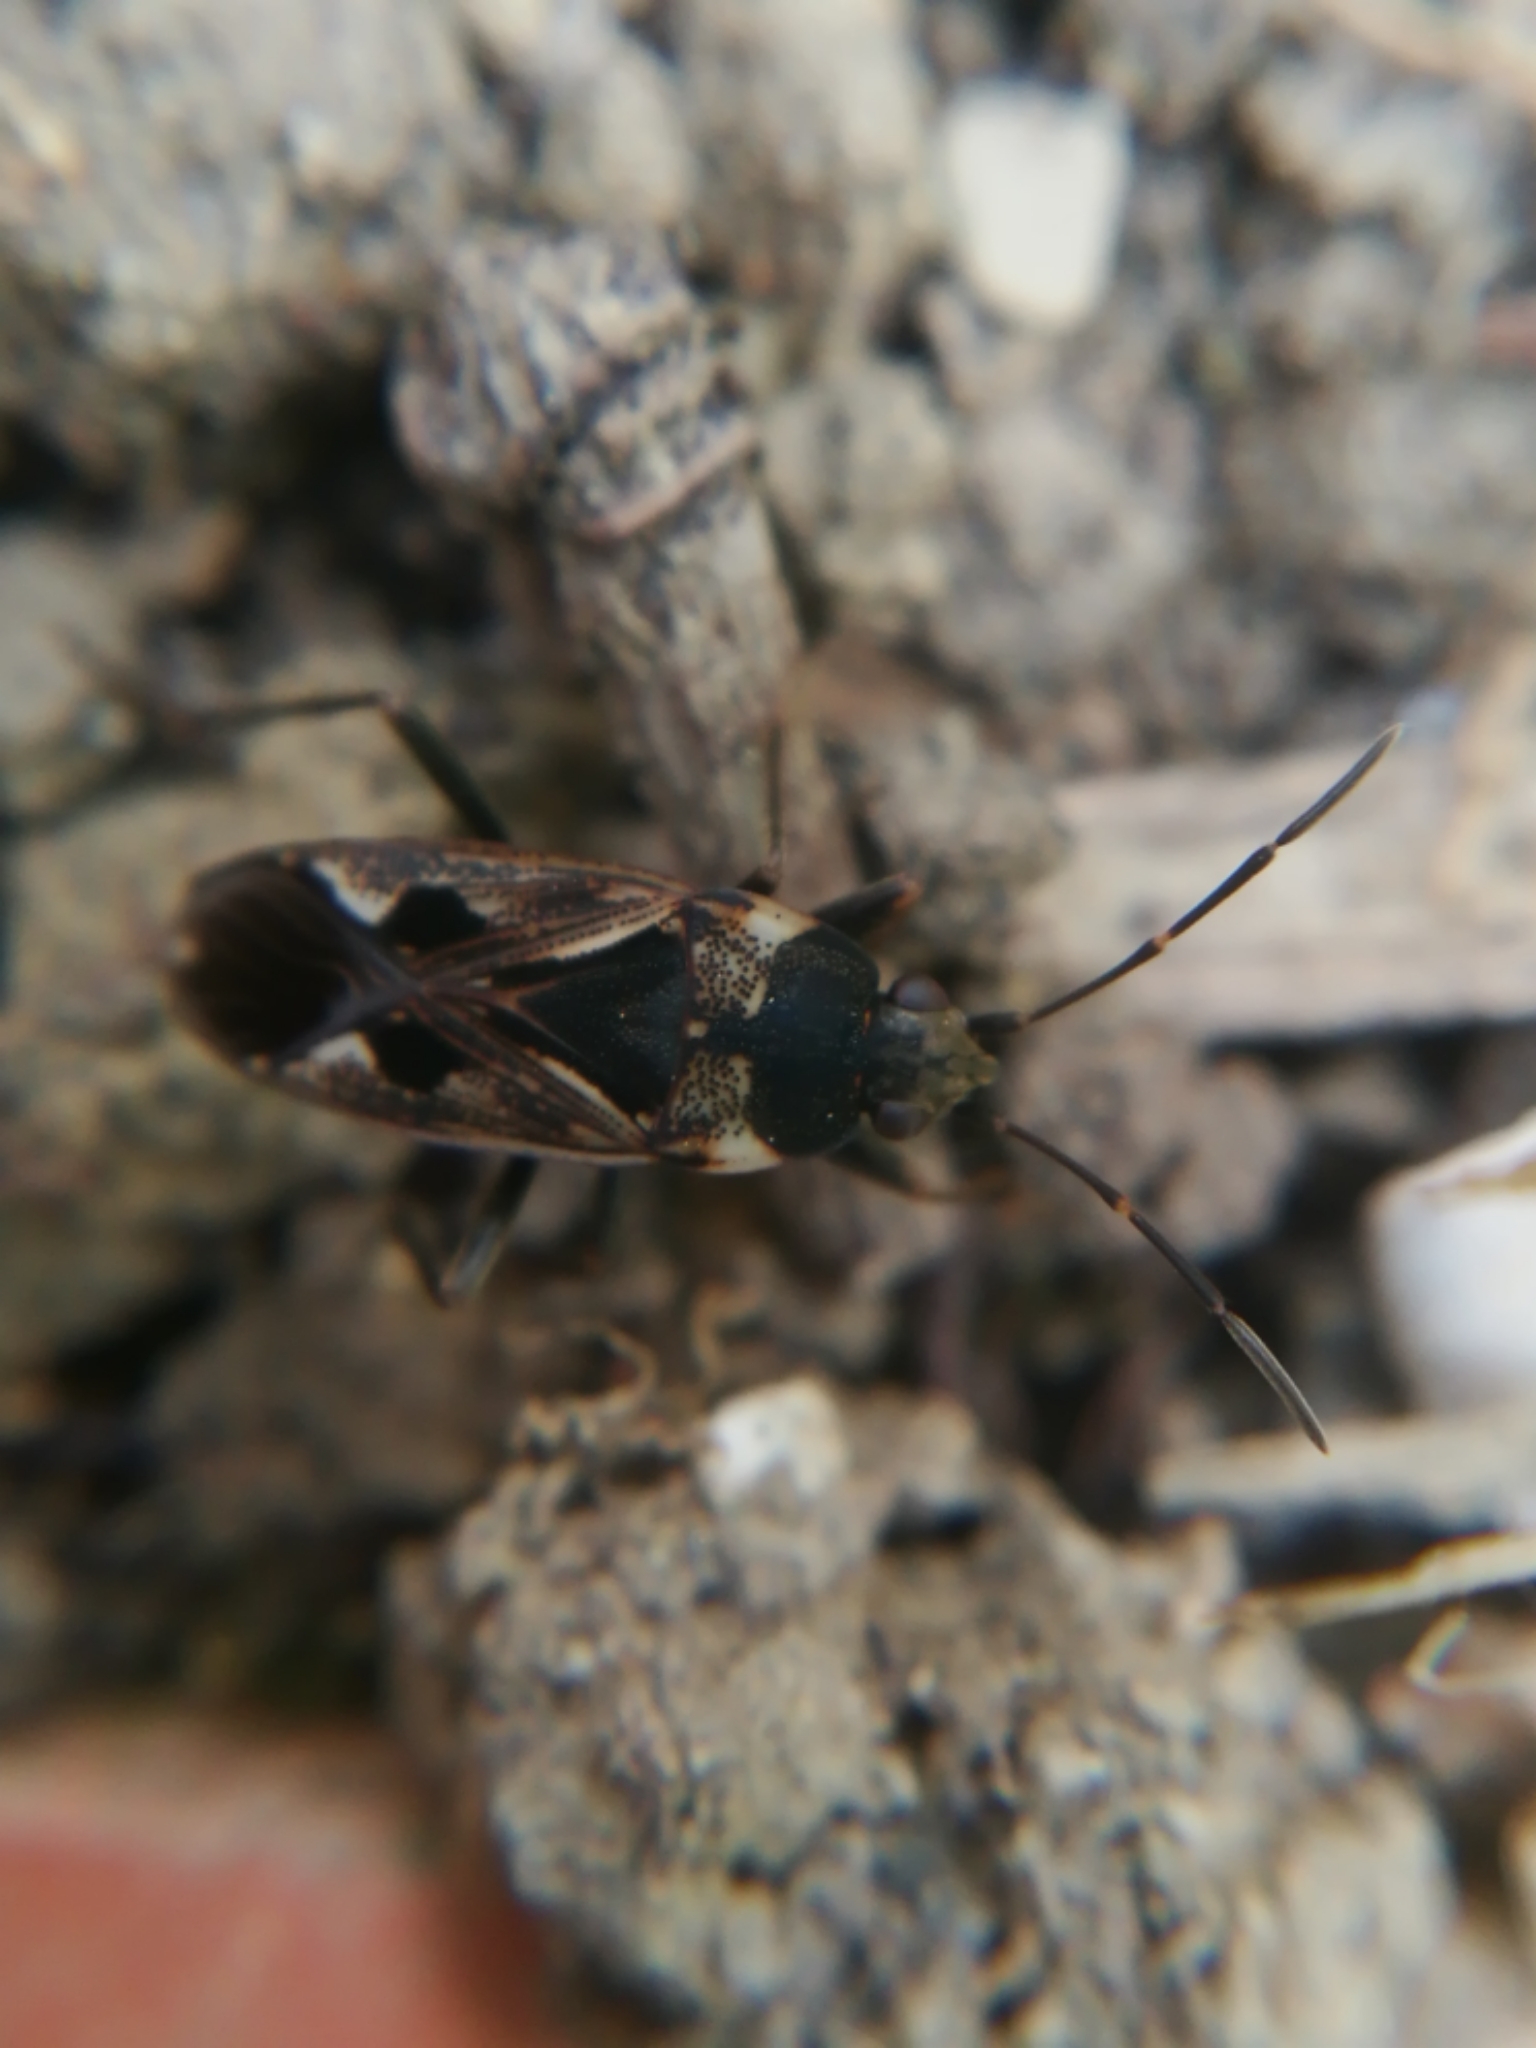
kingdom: Animalia
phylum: Arthropoda
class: Insecta
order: Hemiptera
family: Rhyparochromidae
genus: Rhyparochromus
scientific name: Rhyparochromus vulgaris
